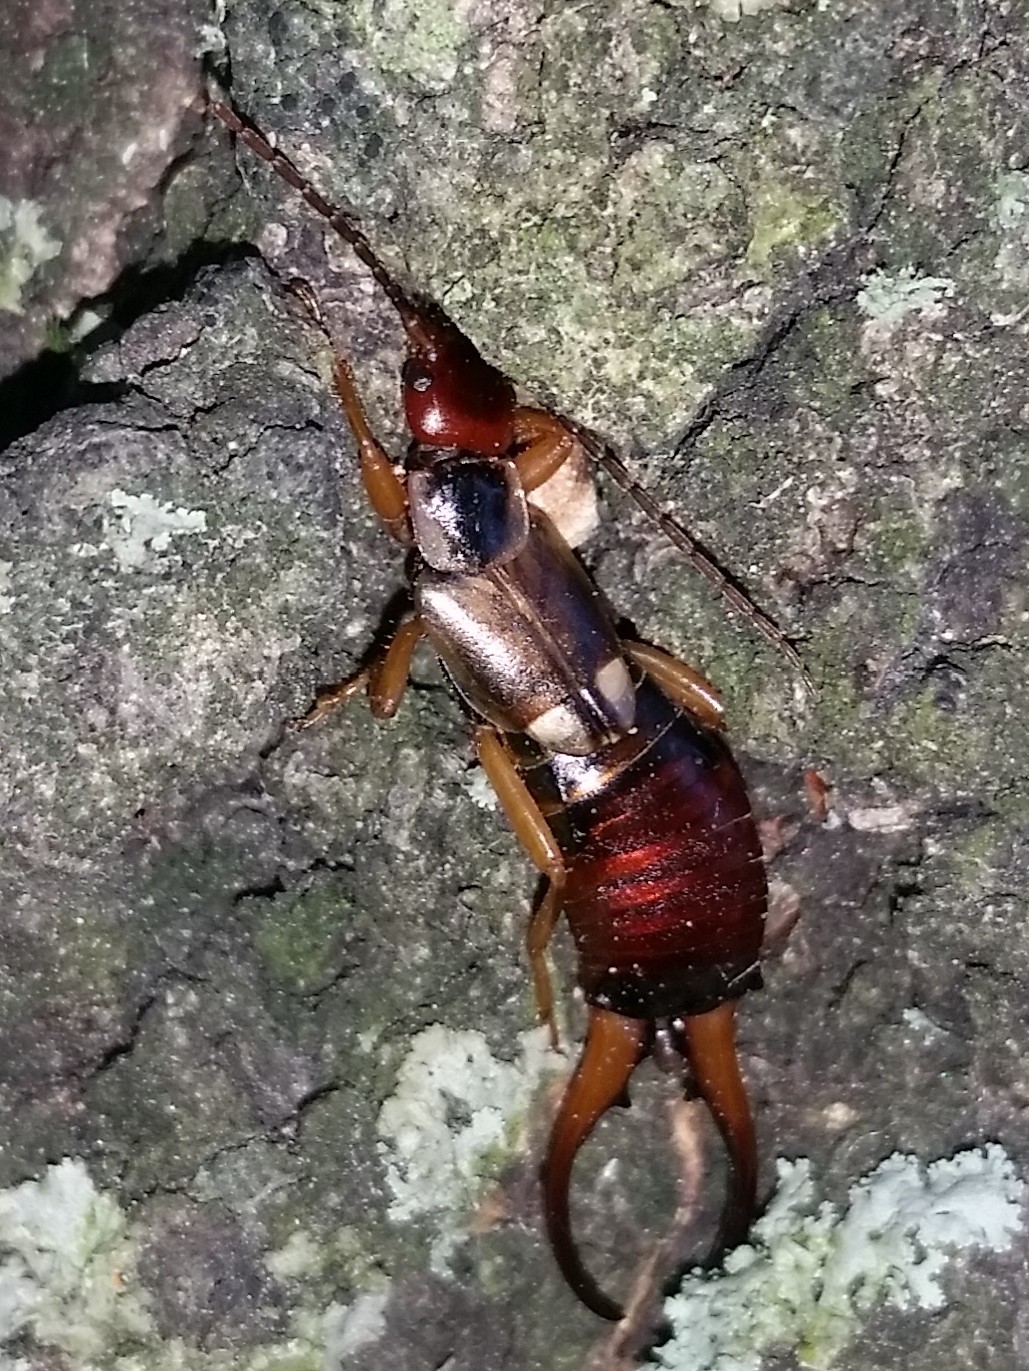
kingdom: Animalia
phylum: Arthropoda
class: Insecta
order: Dermaptera
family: Forficulidae
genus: Forficula
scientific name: Forficula
